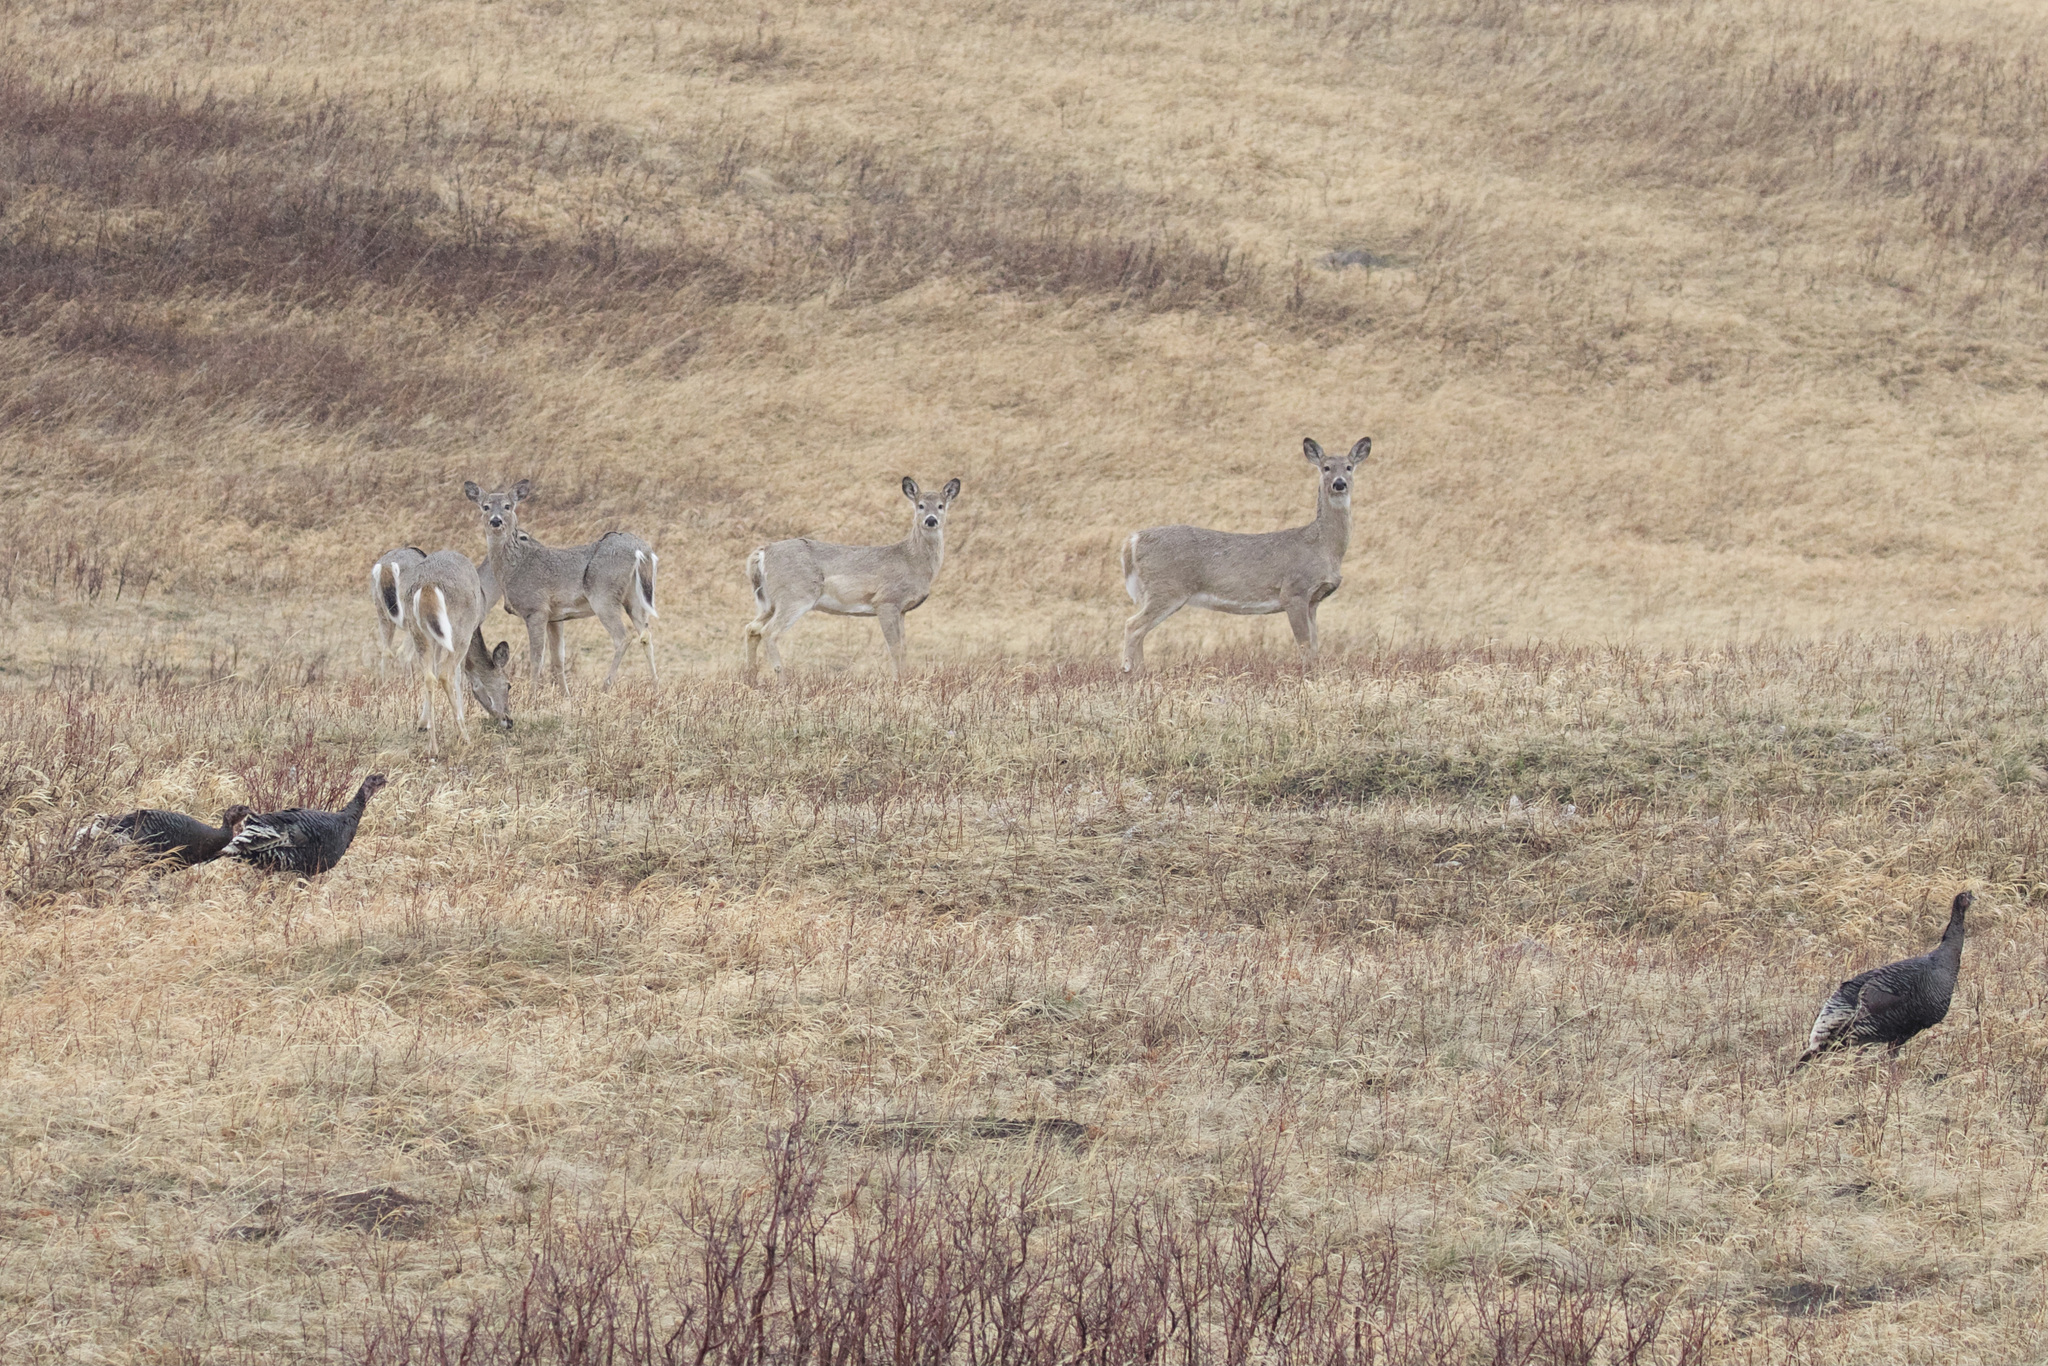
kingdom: Animalia
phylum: Chordata
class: Aves
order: Galliformes
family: Phasianidae
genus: Meleagris
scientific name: Meleagris gallopavo
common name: Wild turkey
